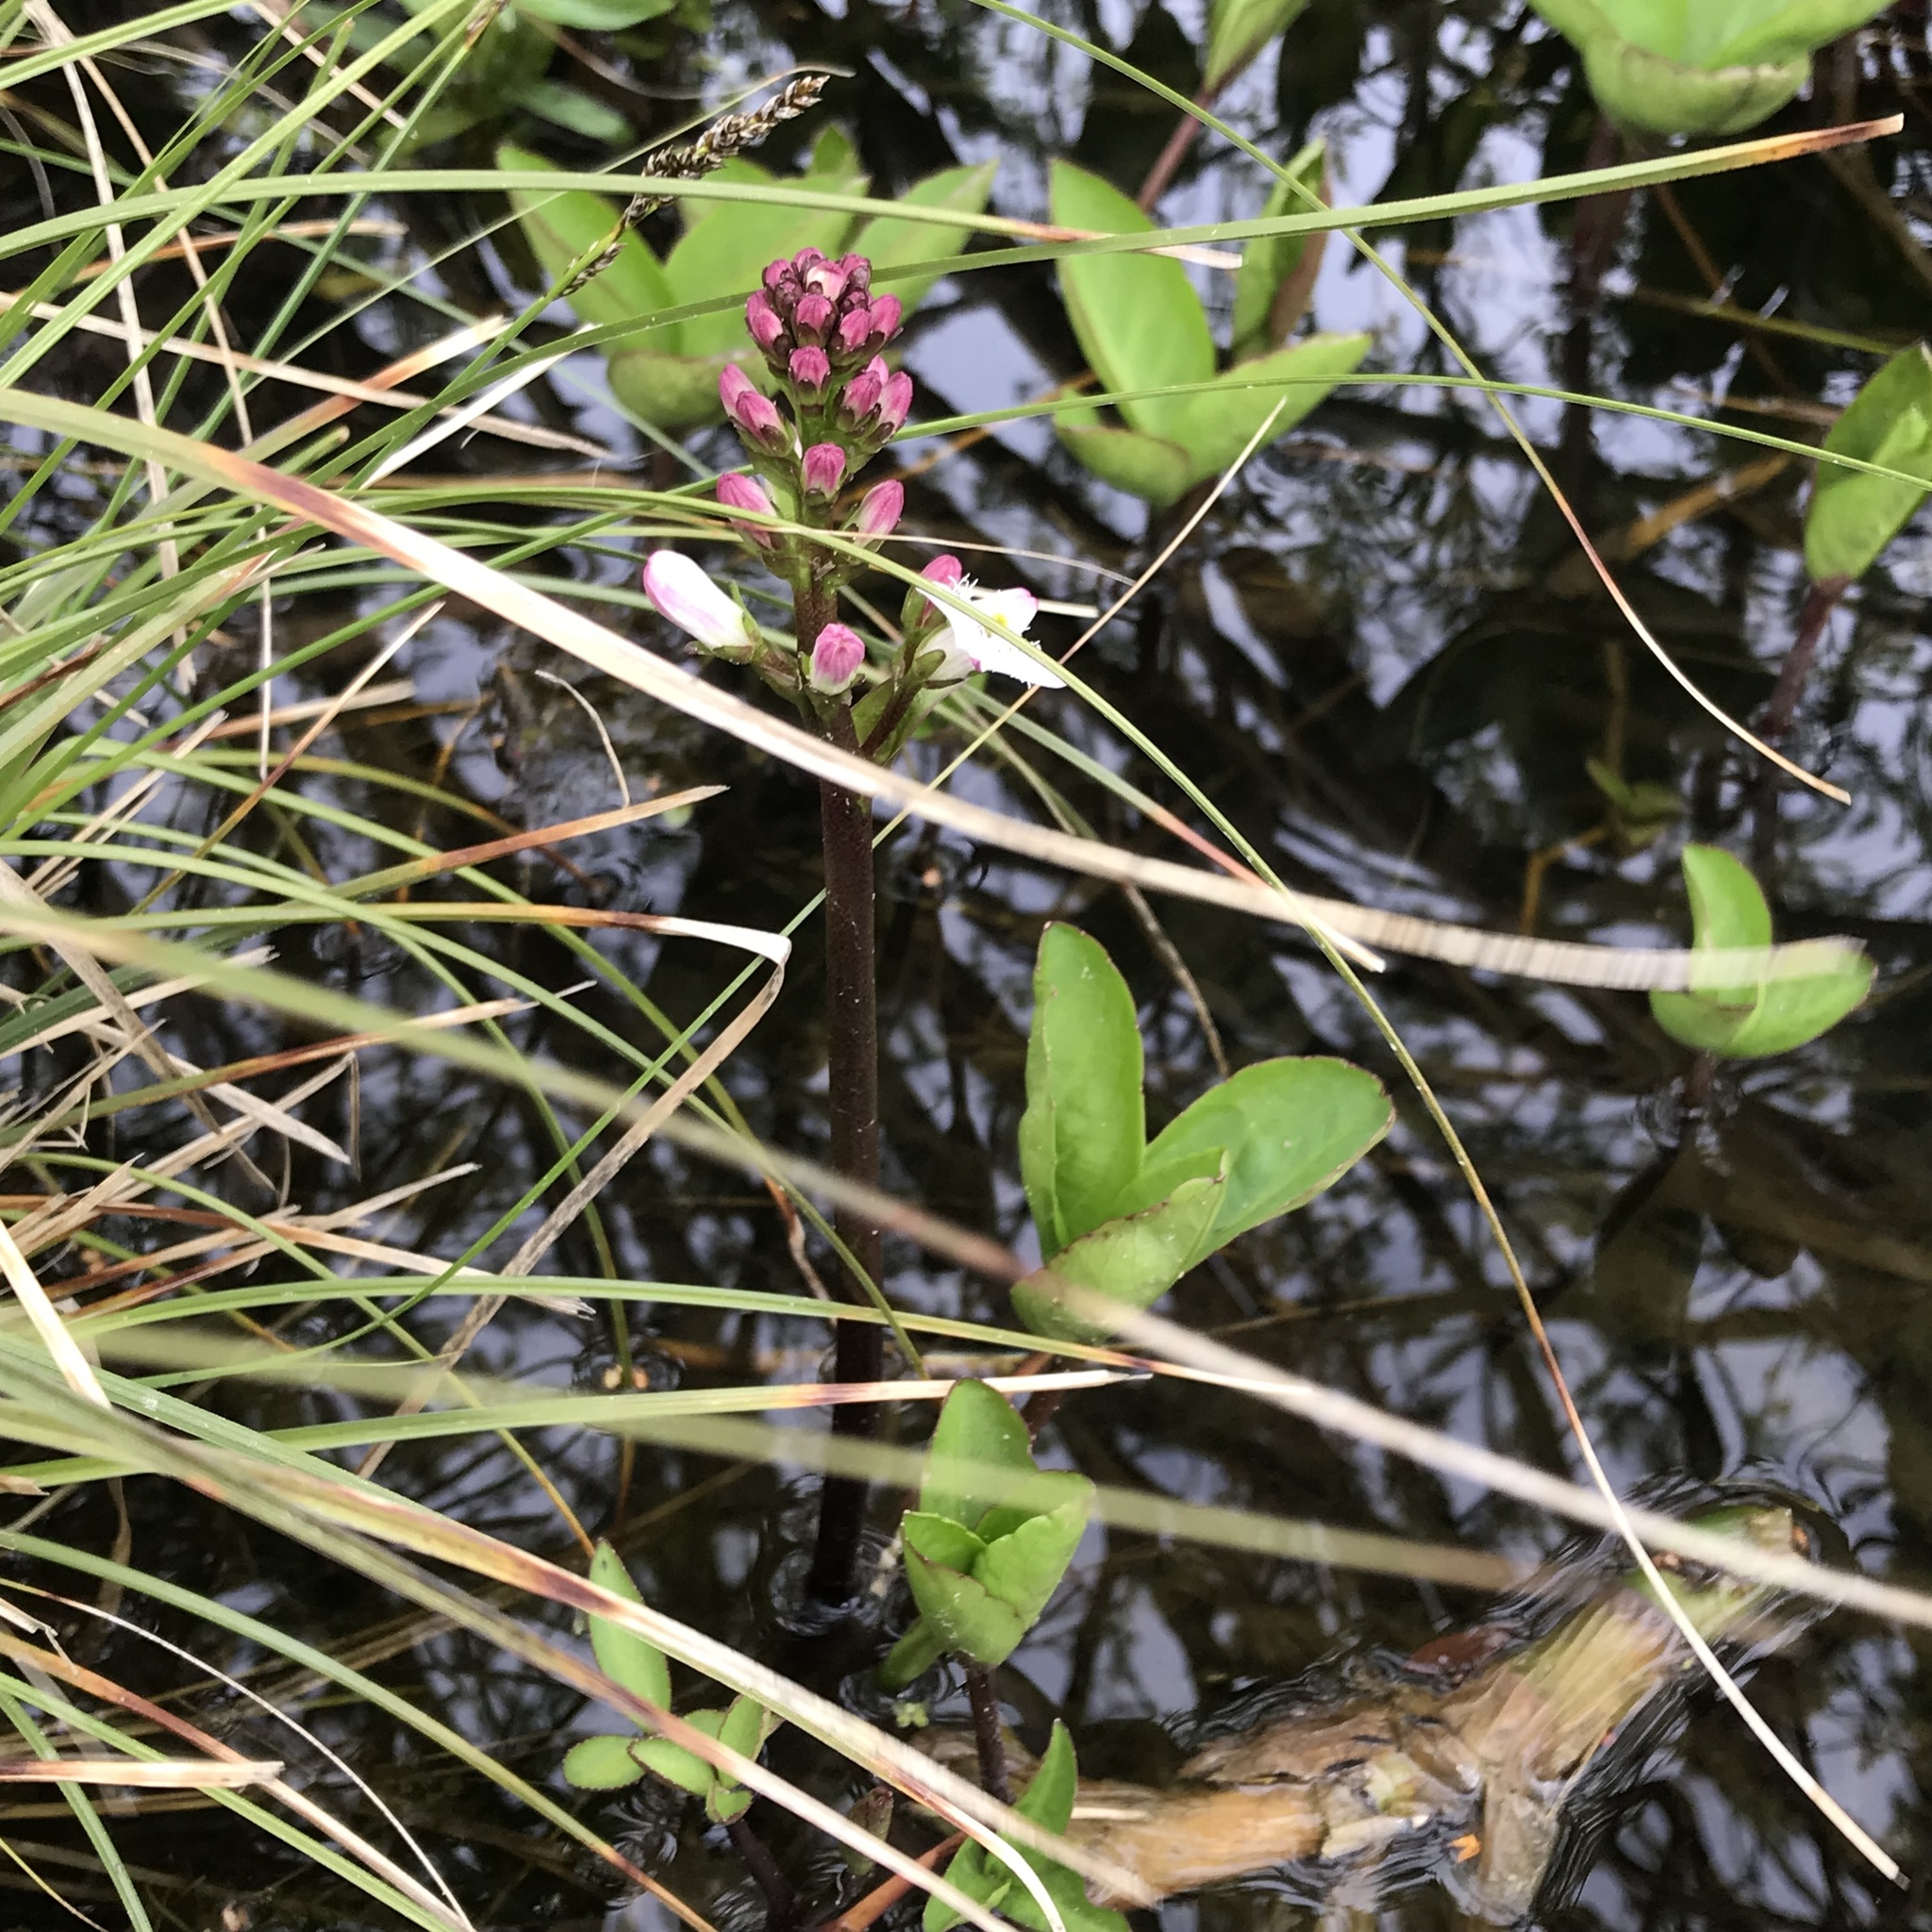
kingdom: Plantae
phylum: Tracheophyta
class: Magnoliopsida
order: Asterales
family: Menyanthaceae
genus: Menyanthes
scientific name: Menyanthes trifoliata
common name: Bogbean
